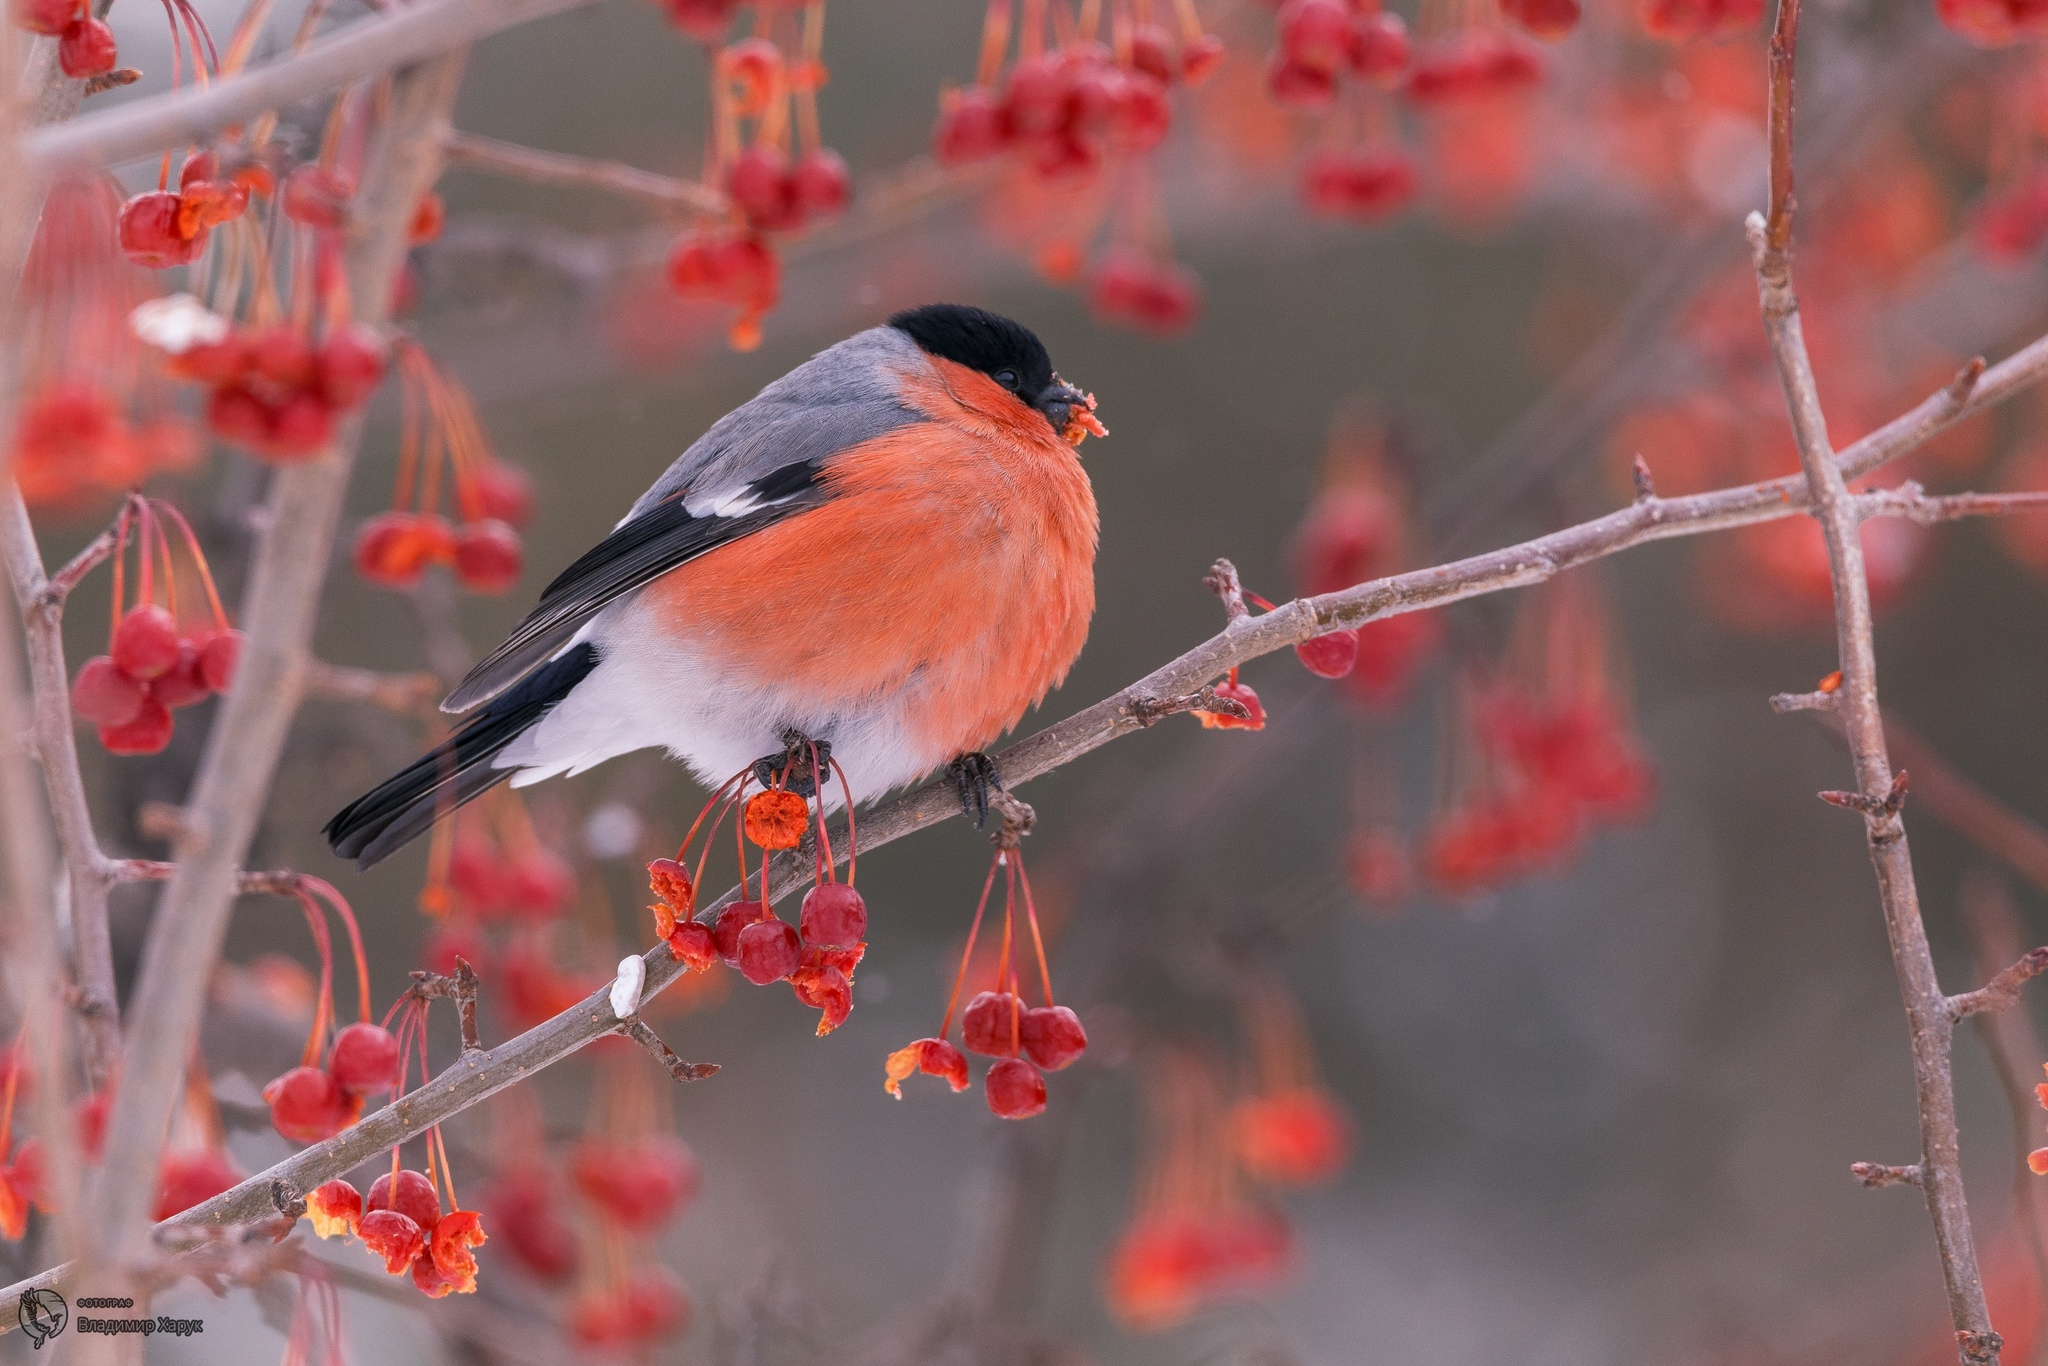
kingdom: Animalia
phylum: Chordata
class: Aves
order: Passeriformes
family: Fringillidae
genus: Pyrrhula
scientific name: Pyrrhula pyrrhula
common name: Eurasian bullfinch
